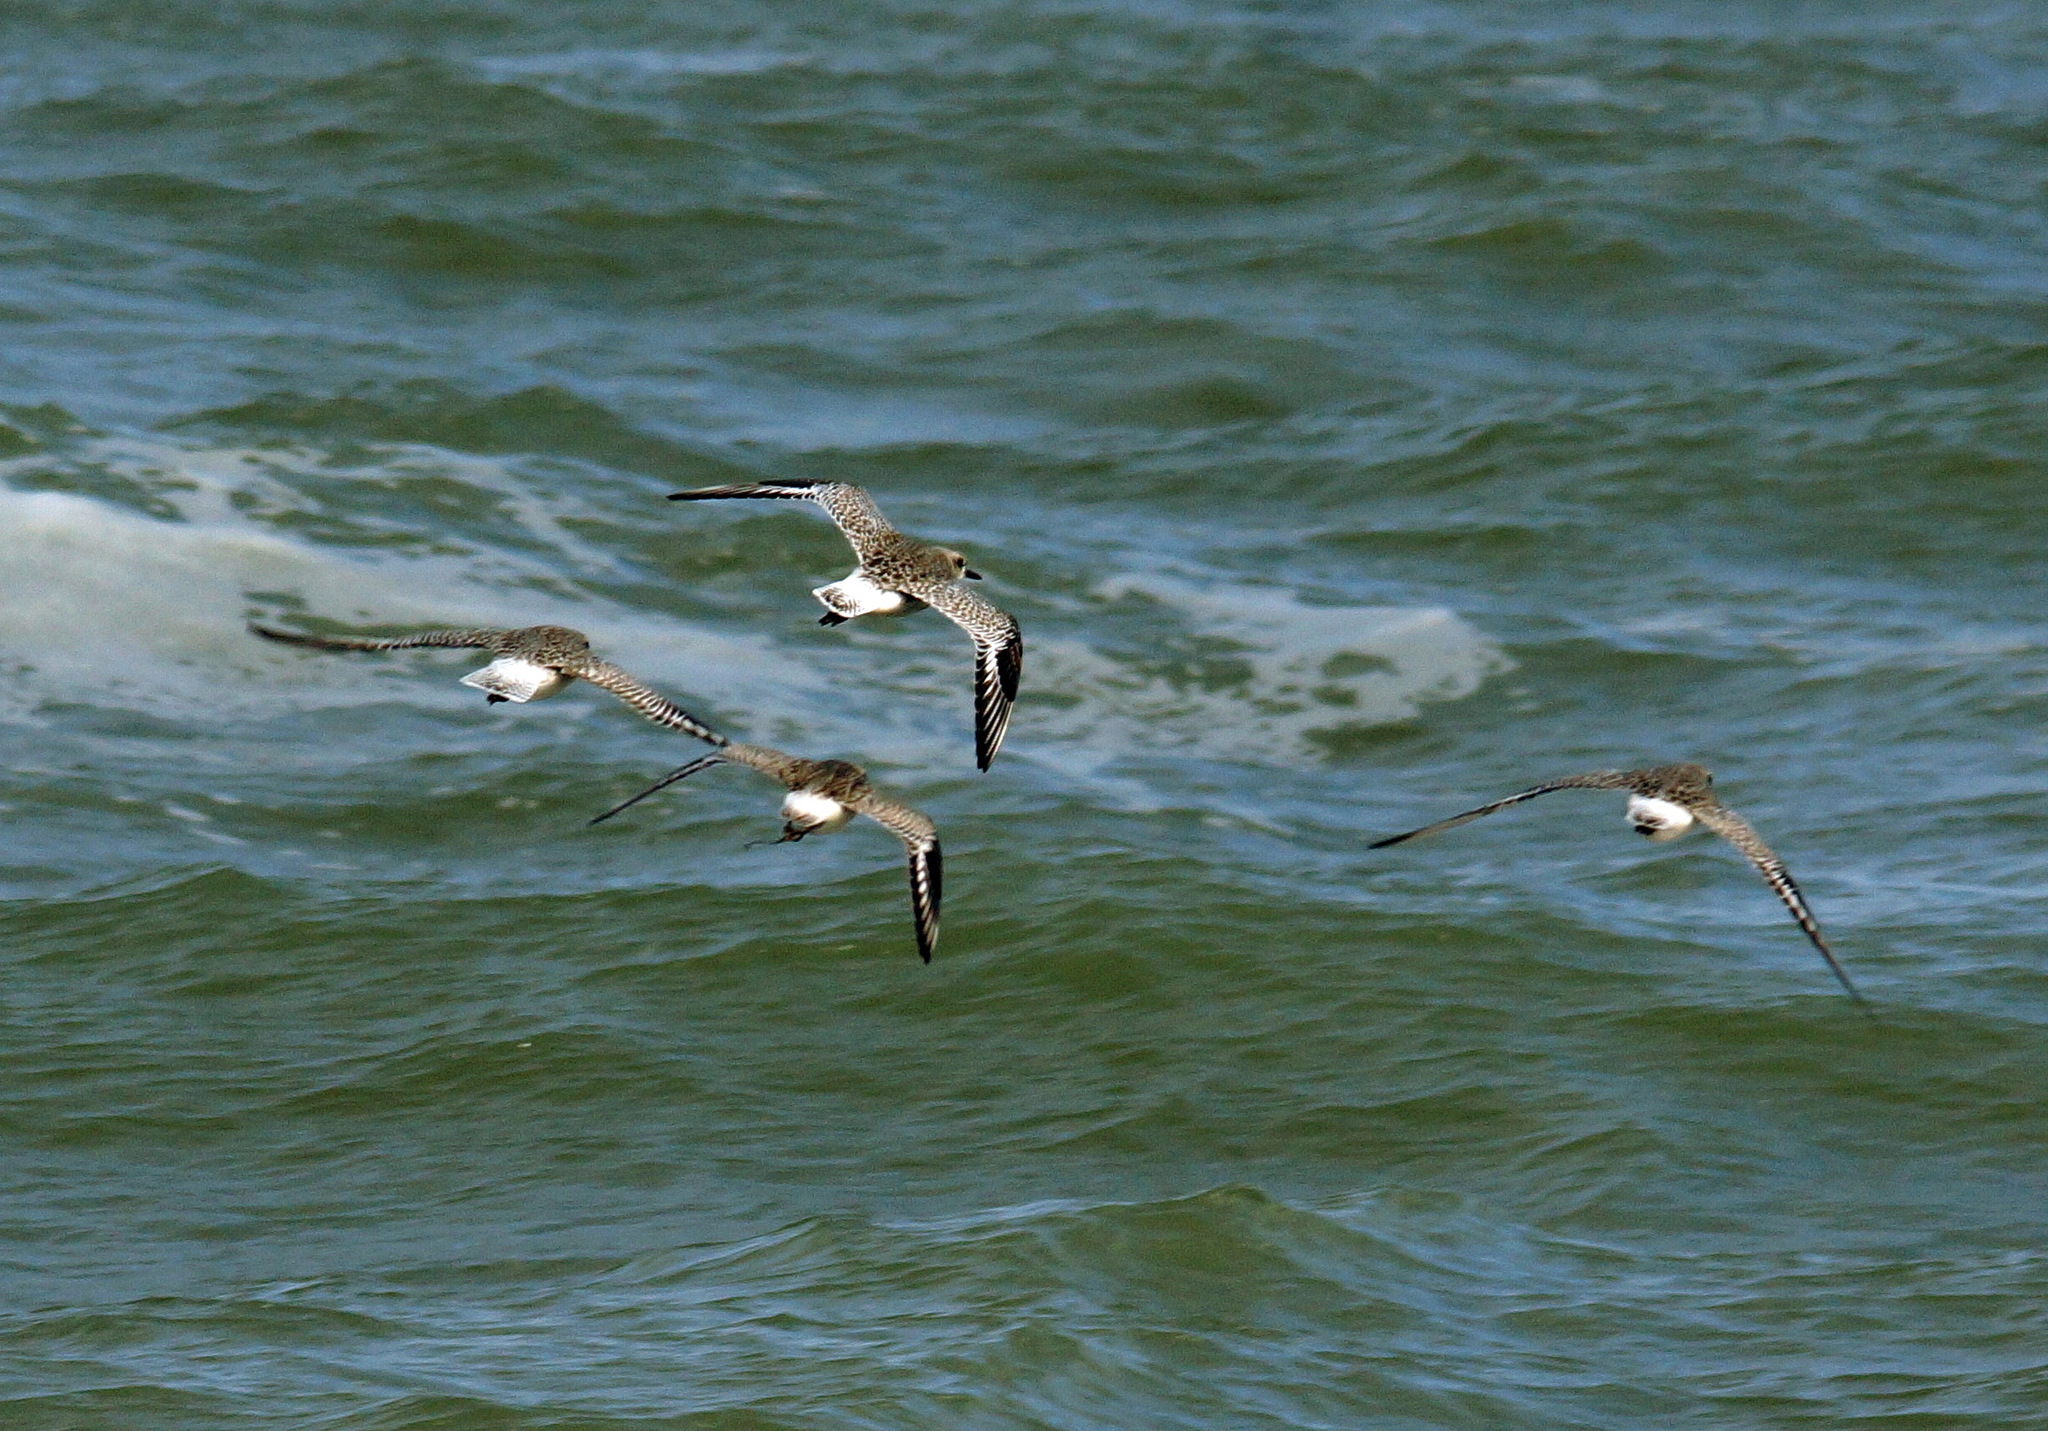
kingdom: Animalia
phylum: Chordata
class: Aves
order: Charadriiformes
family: Charadriidae
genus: Pluvialis
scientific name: Pluvialis squatarola
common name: Grey plover
